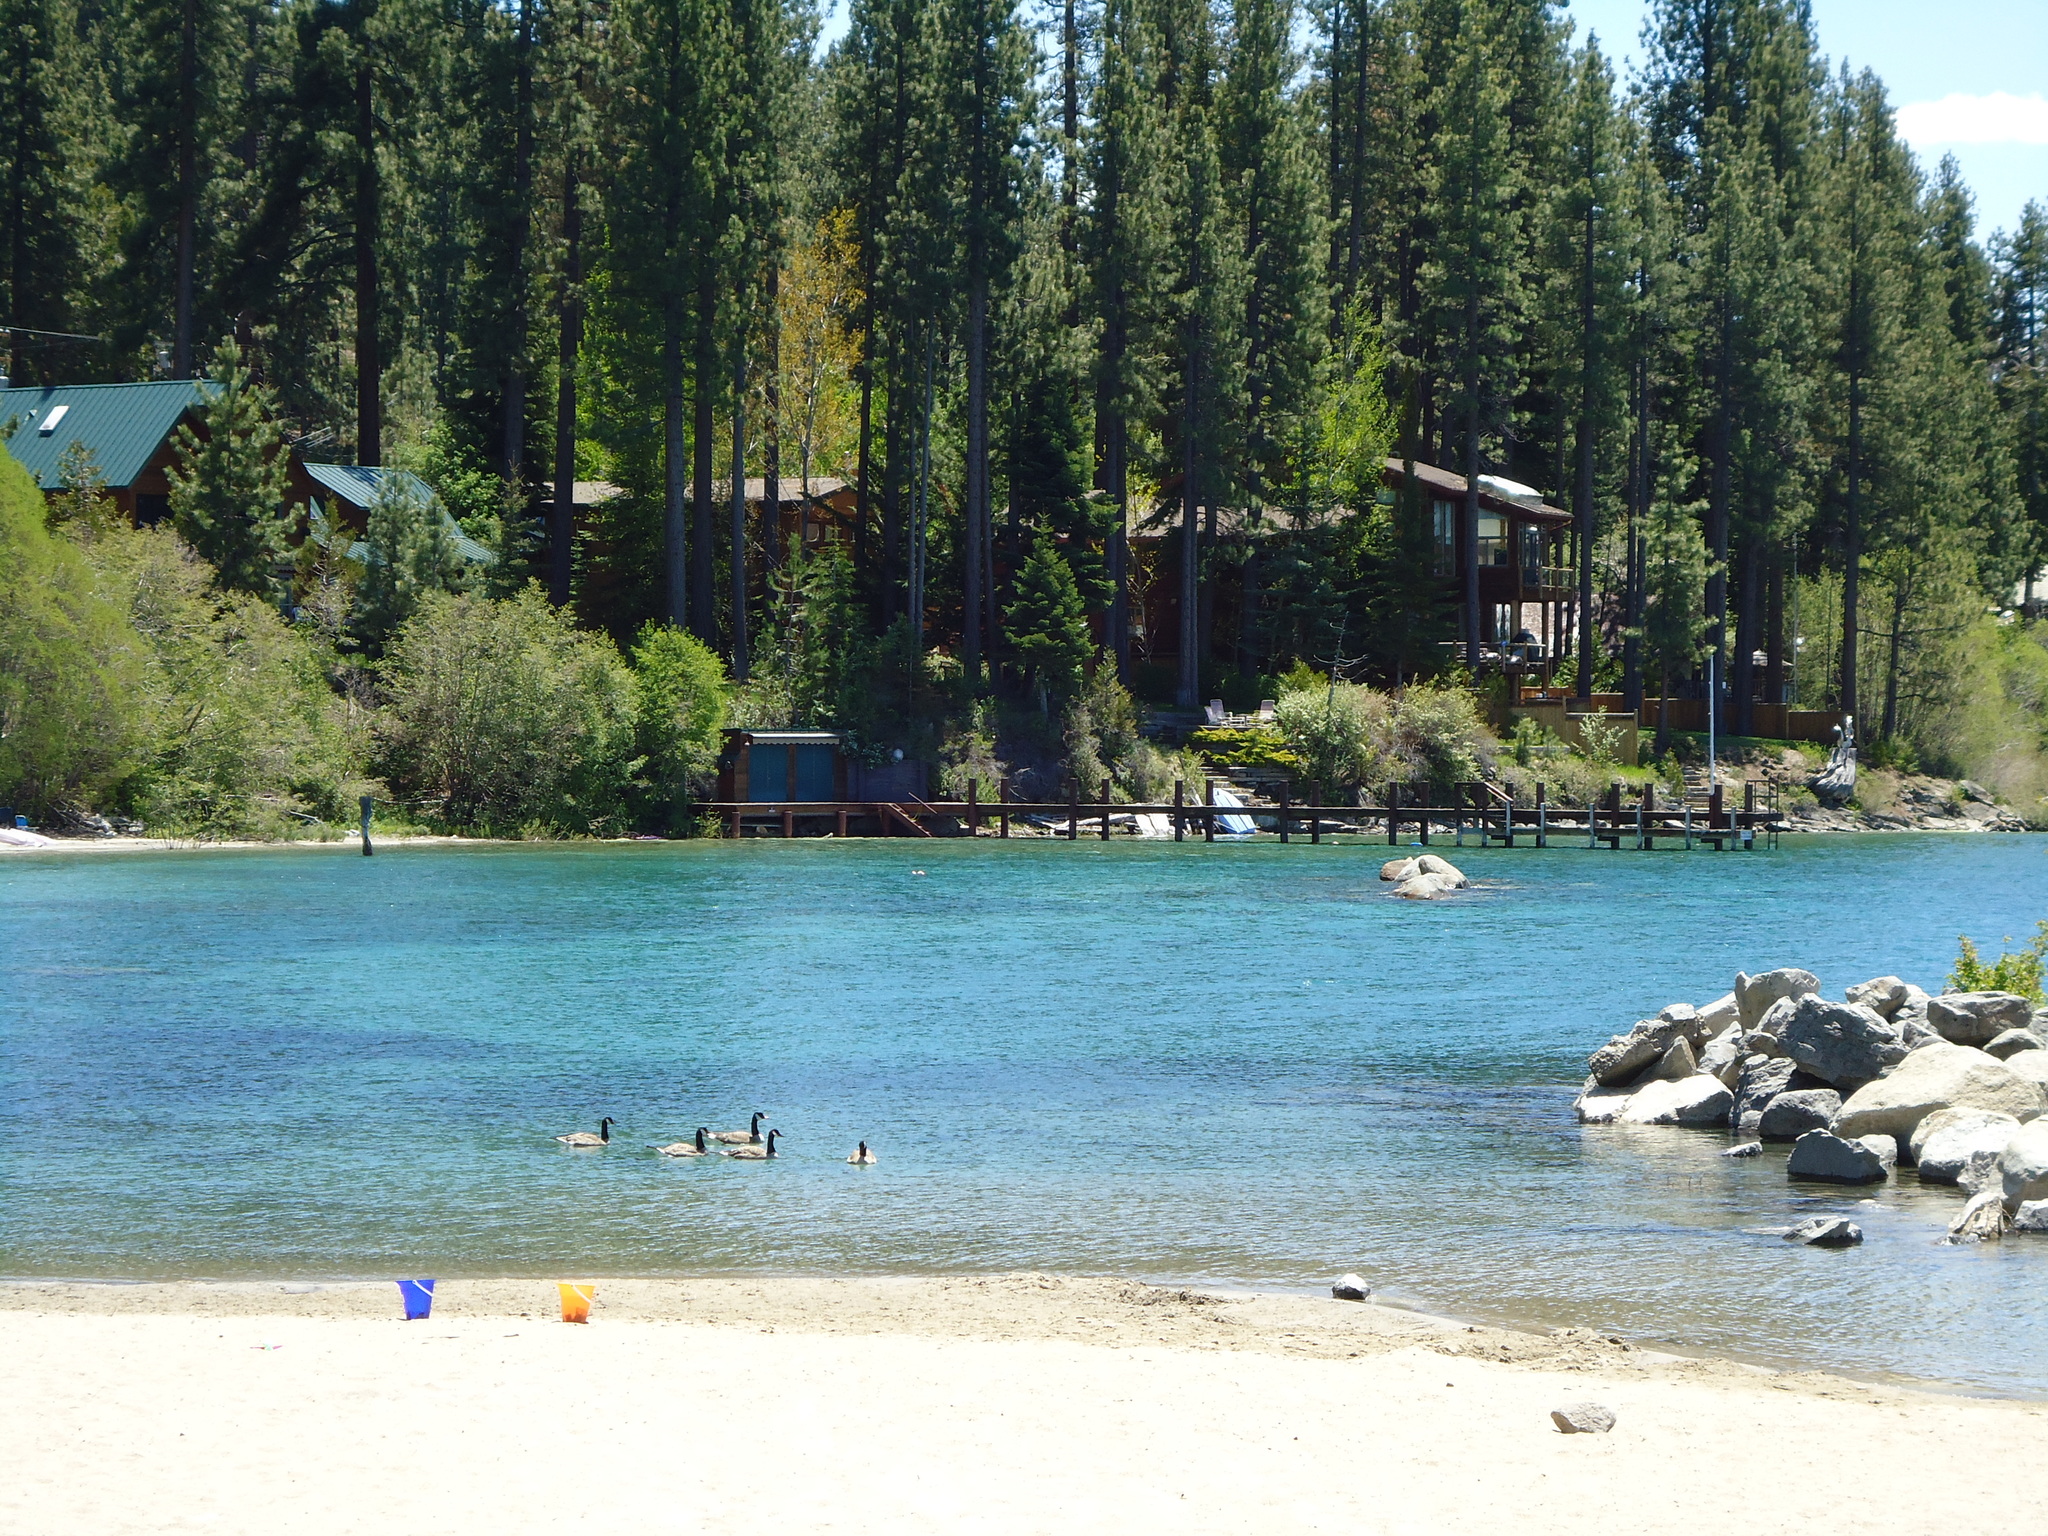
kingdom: Animalia
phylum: Chordata
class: Aves
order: Anseriformes
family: Anatidae
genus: Branta
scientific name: Branta canadensis
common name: Canada goose
